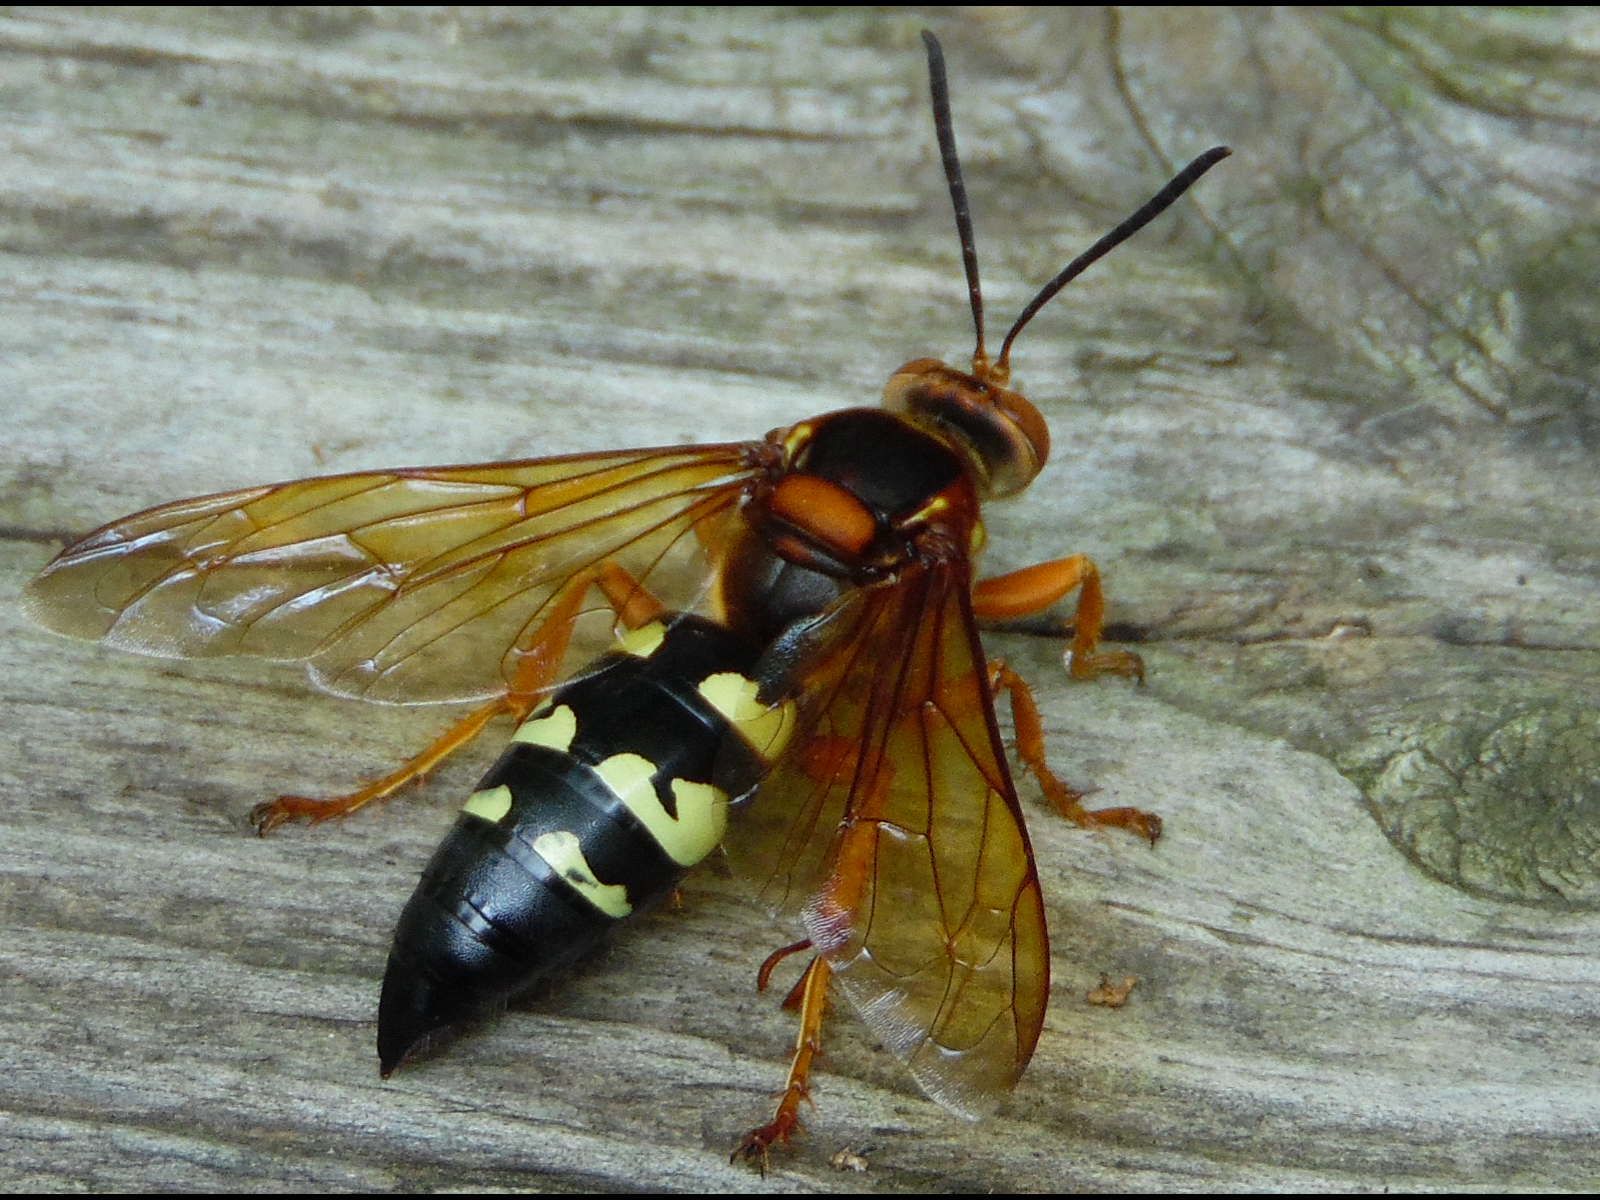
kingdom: Animalia
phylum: Arthropoda
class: Insecta
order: Hymenoptera
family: Crabronidae
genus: Sphecius
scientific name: Sphecius speciosus
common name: Cicada killer
